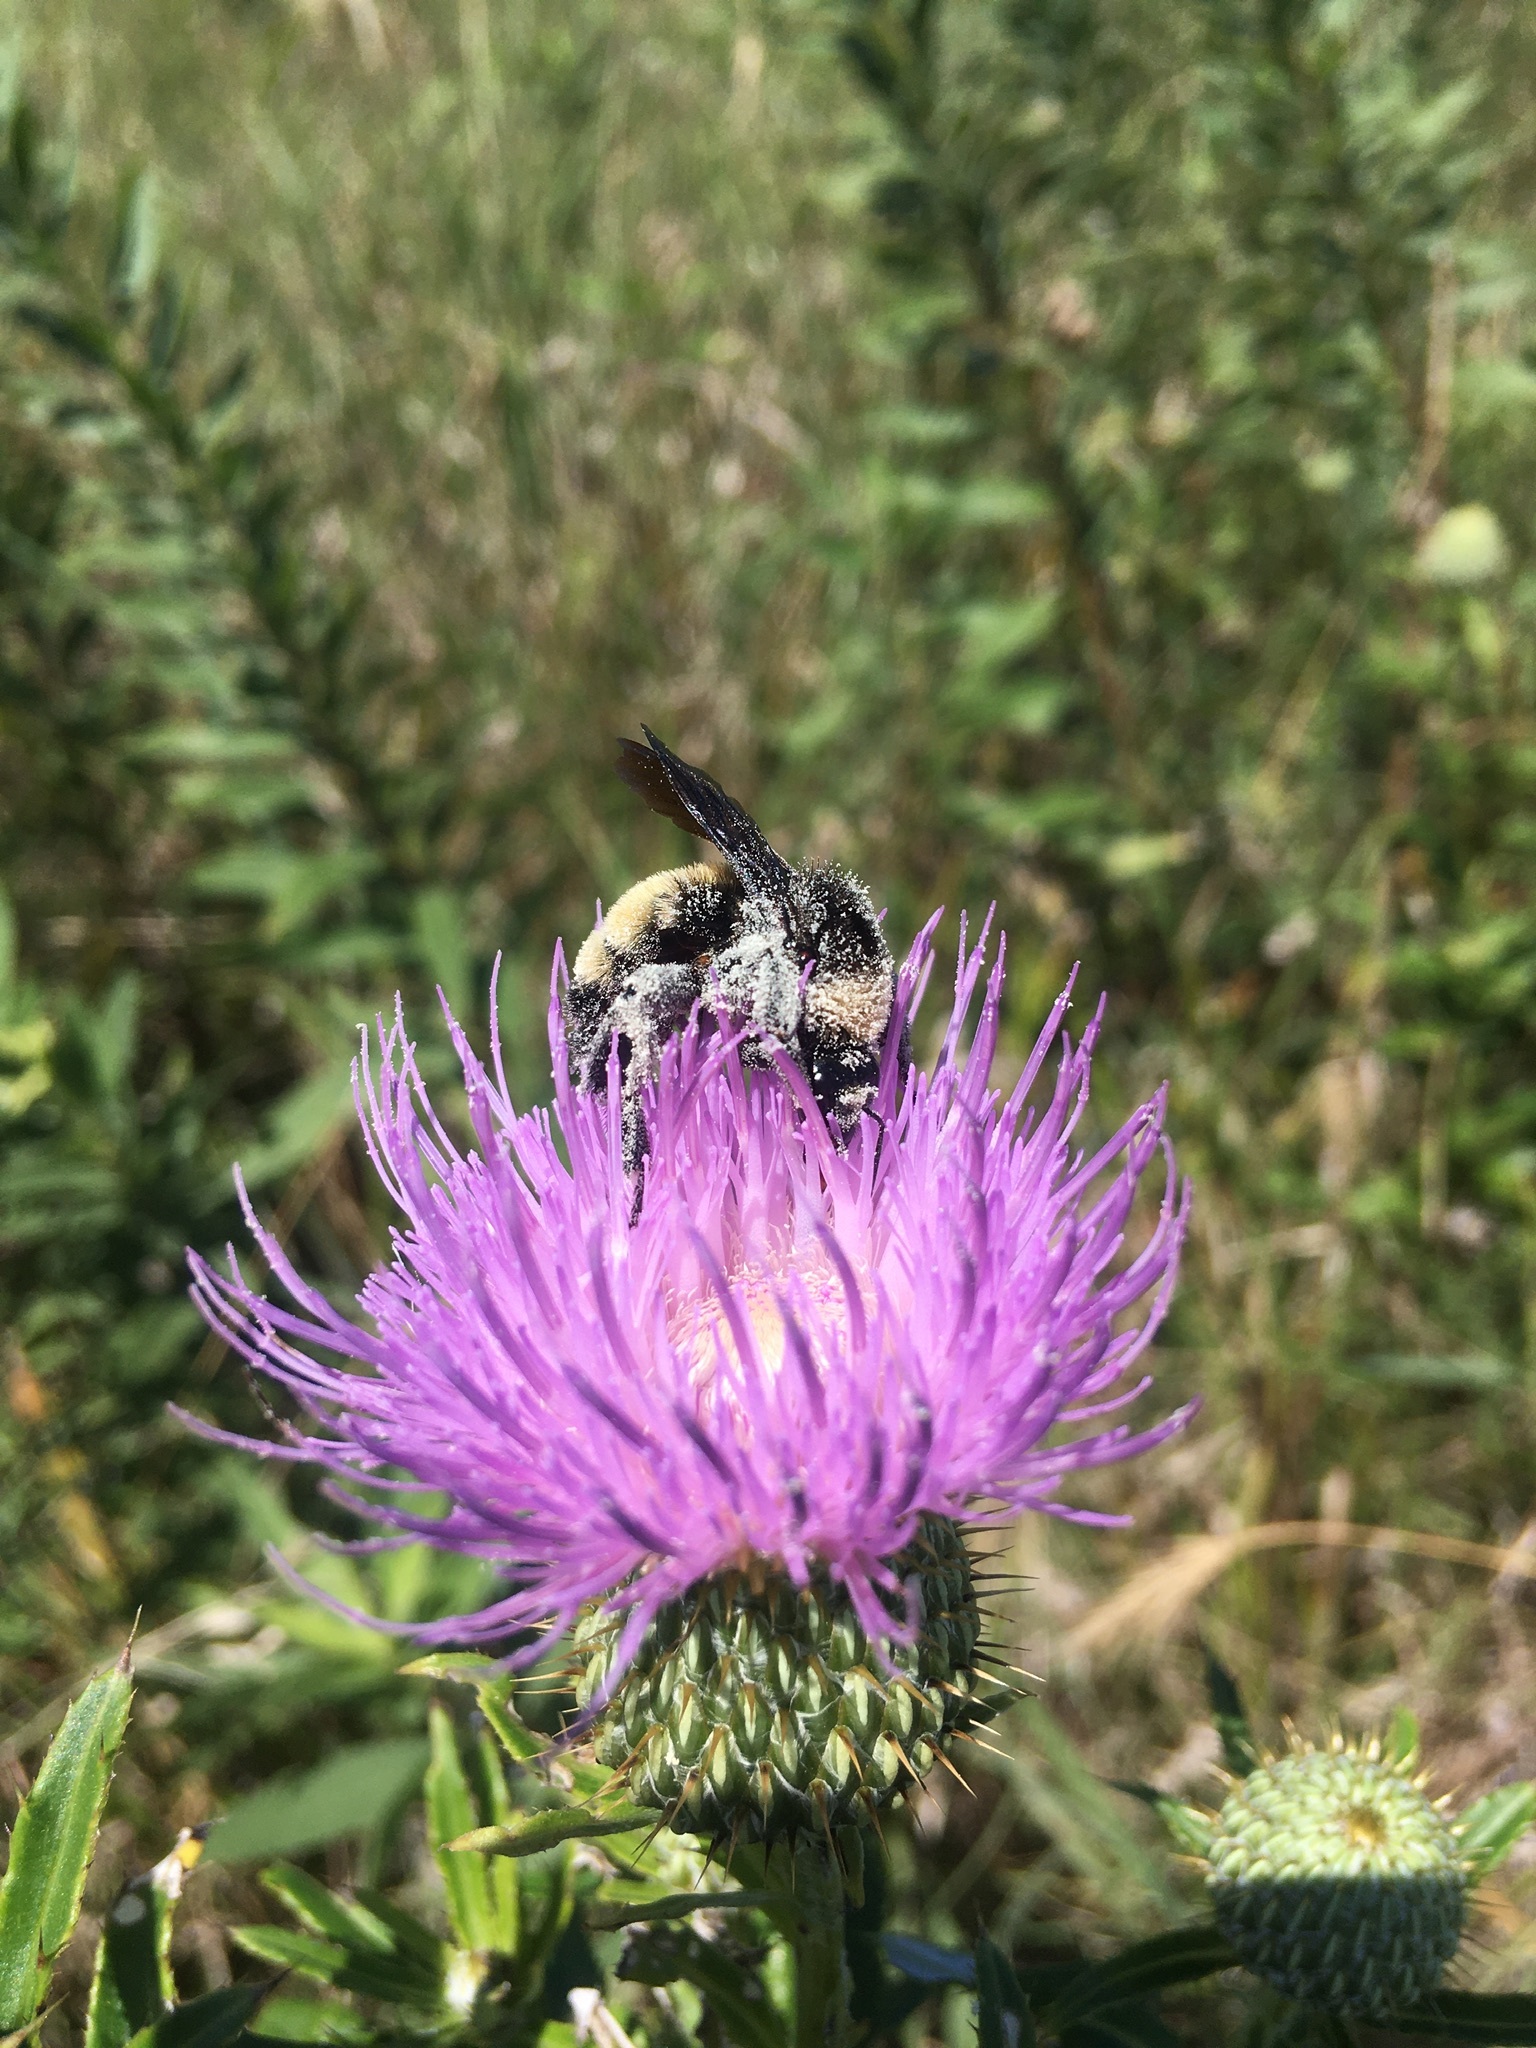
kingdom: Animalia
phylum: Arthropoda
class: Insecta
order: Hymenoptera
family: Apidae
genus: Bombus
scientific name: Bombus pensylvanicus
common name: Bumble bee
